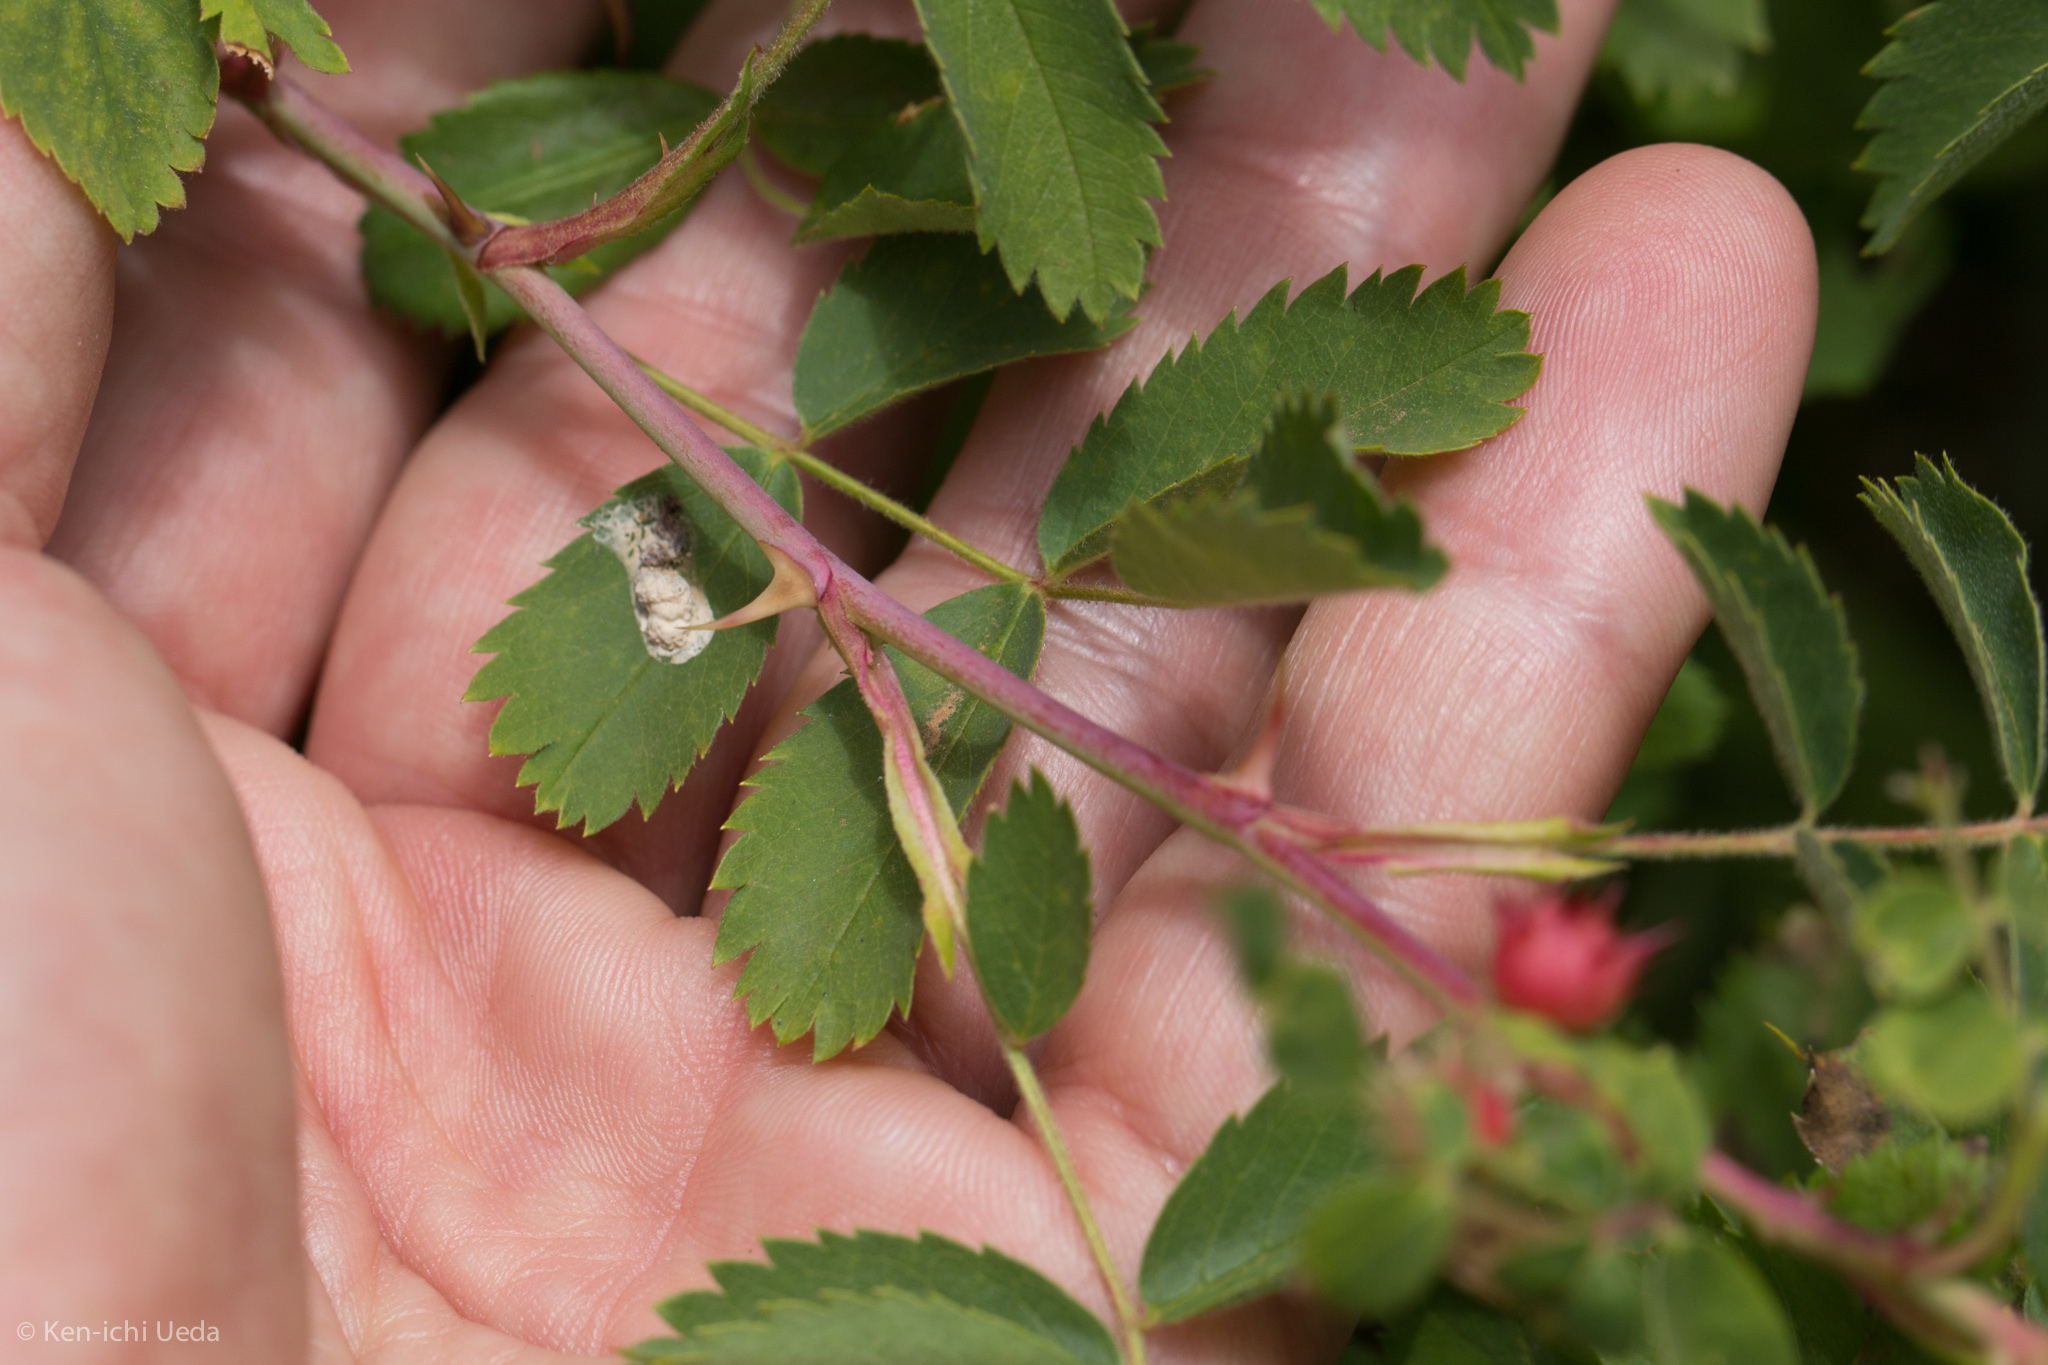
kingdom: Plantae
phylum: Tracheophyta
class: Magnoliopsida
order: Rosales
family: Rosaceae
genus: Rosa
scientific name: Rosa californica
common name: California rose
